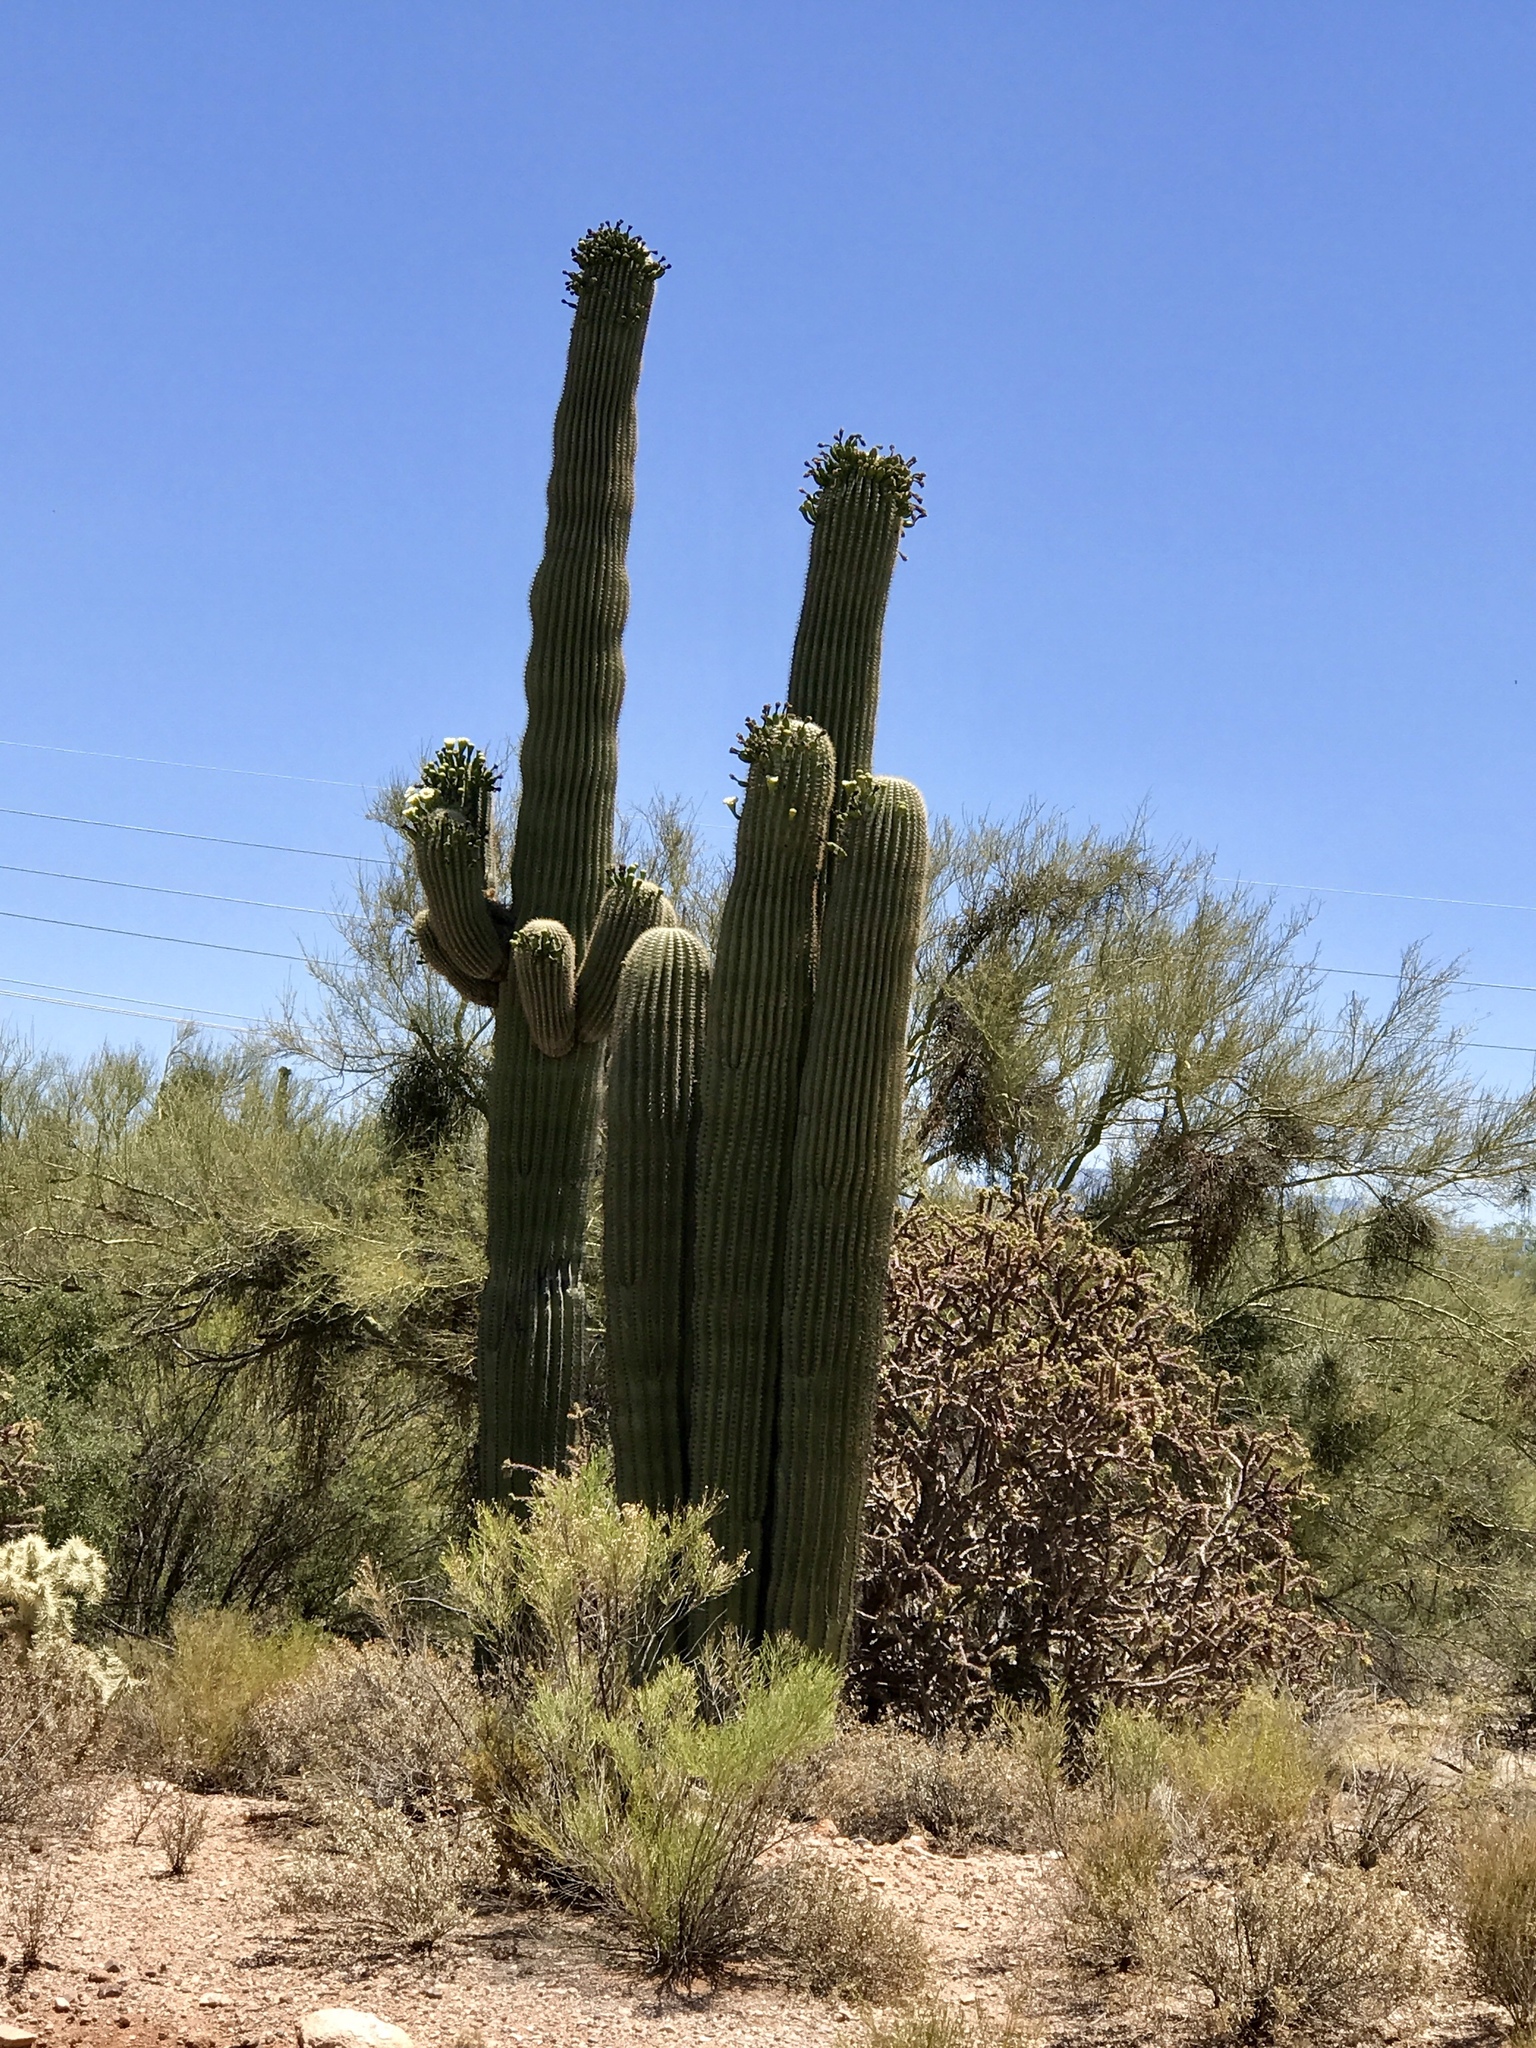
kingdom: Plantae
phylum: Tracheophyta
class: Magnoliopsida
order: Caryophyllales
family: Cactaceae
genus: Carnegiea
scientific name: Carnegiea gigantea
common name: Saguaro
